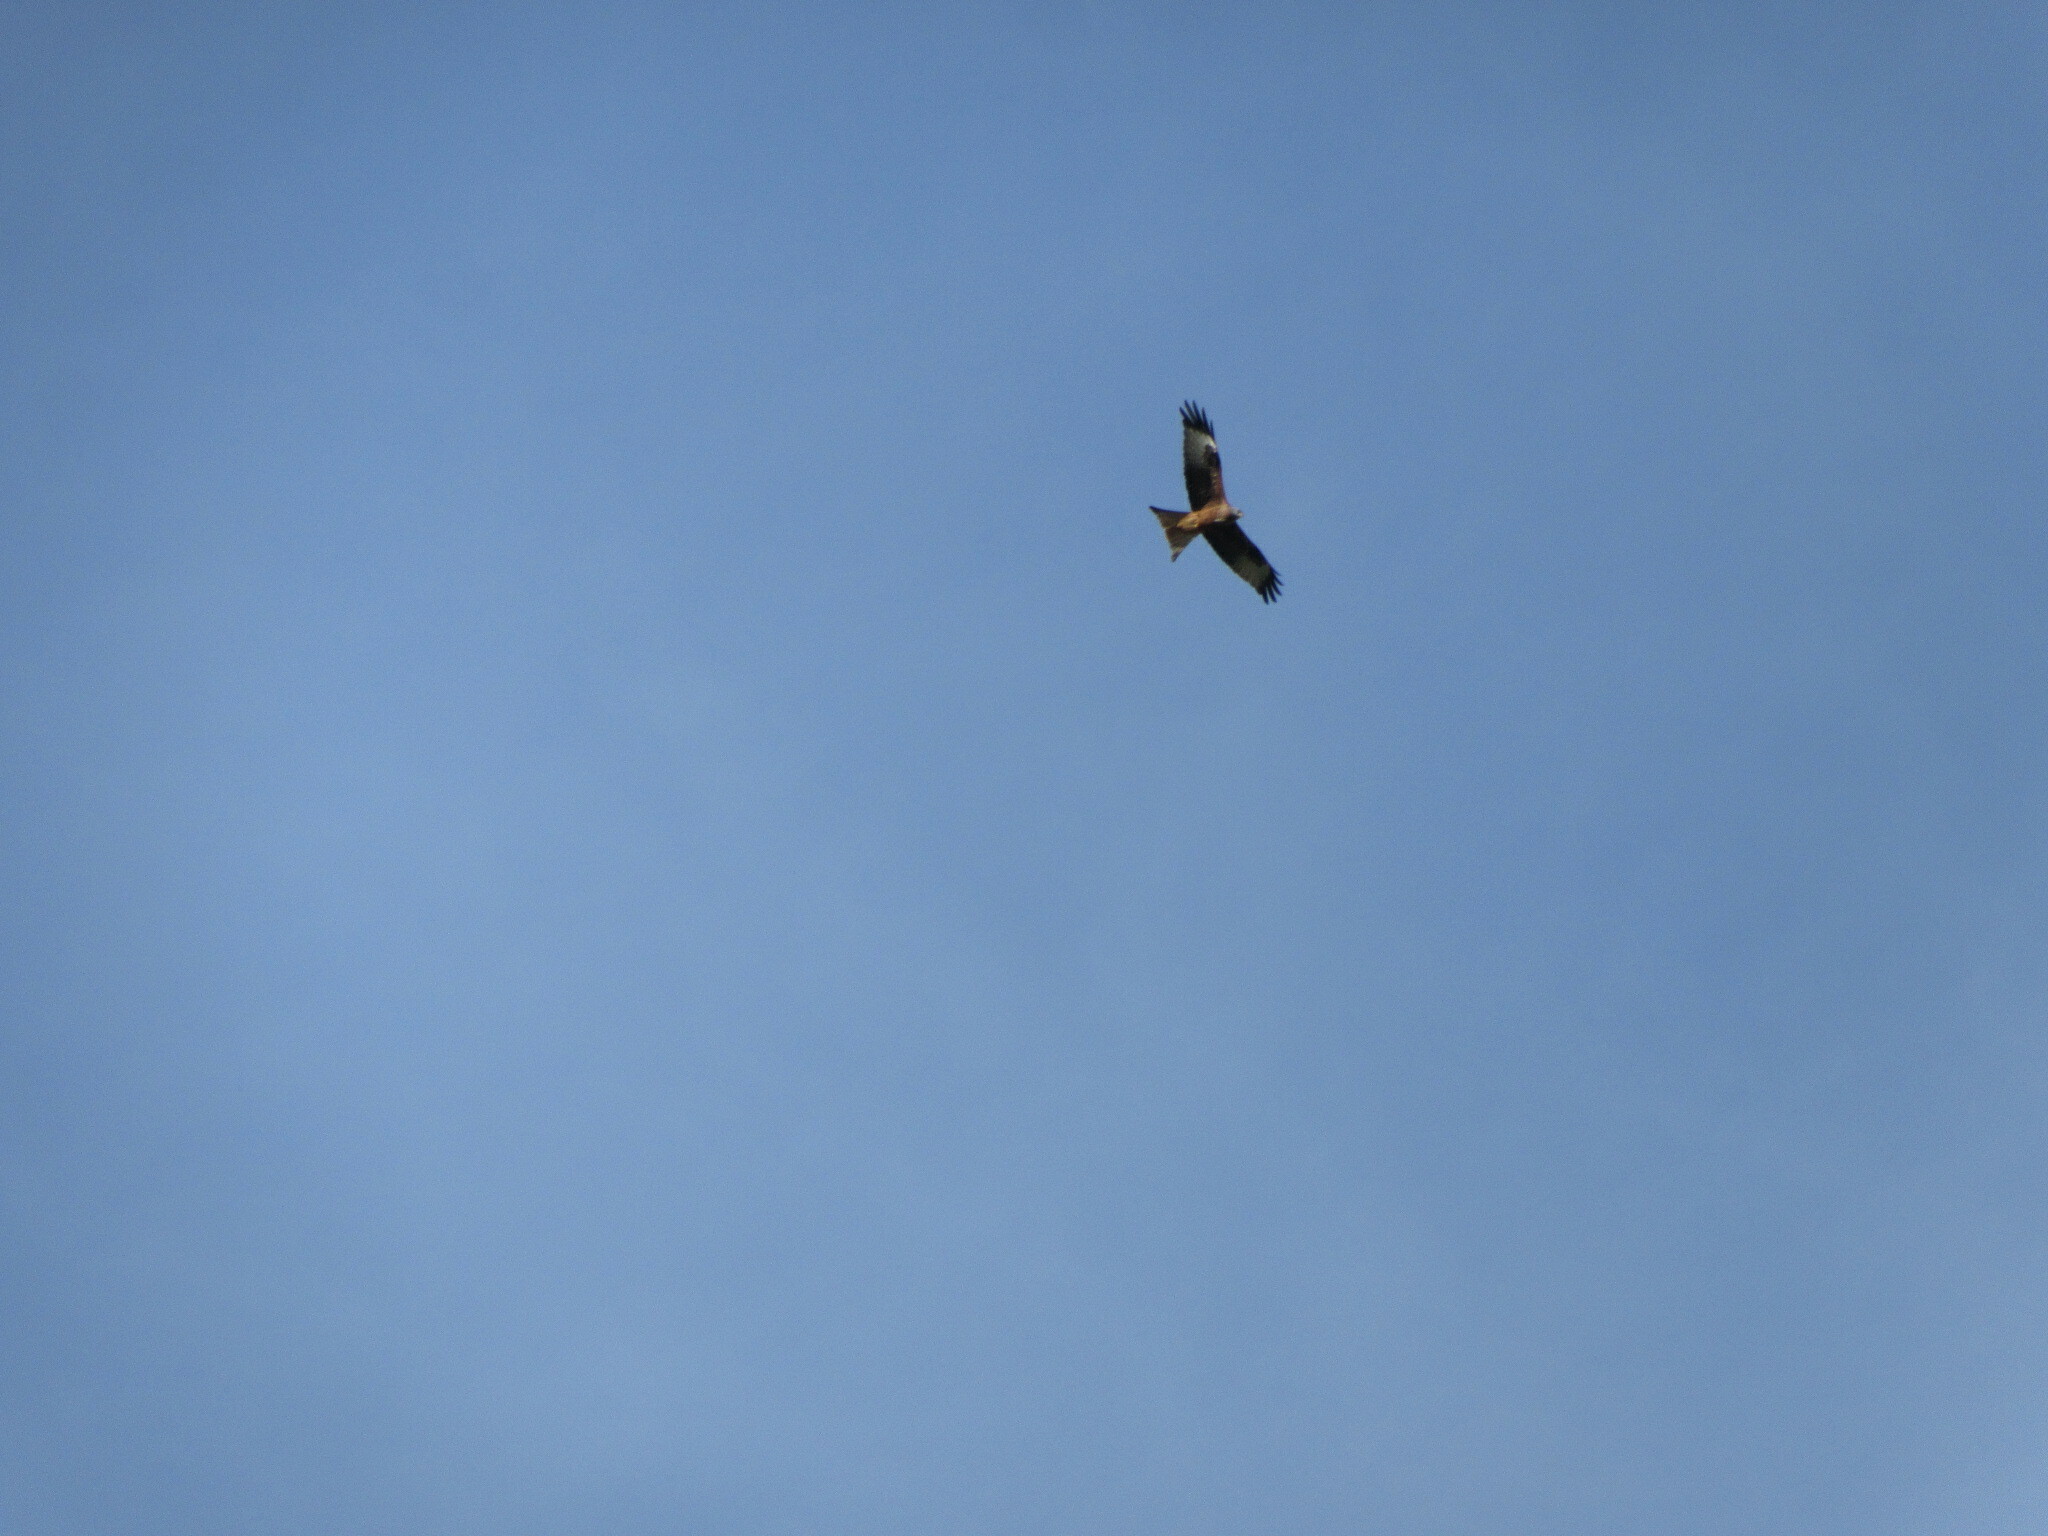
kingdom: Animalia
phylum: Chordata
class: Aves
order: Accipitriformes
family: Accipitridae
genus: Milvus
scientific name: Milvus milvus
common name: Red kite
